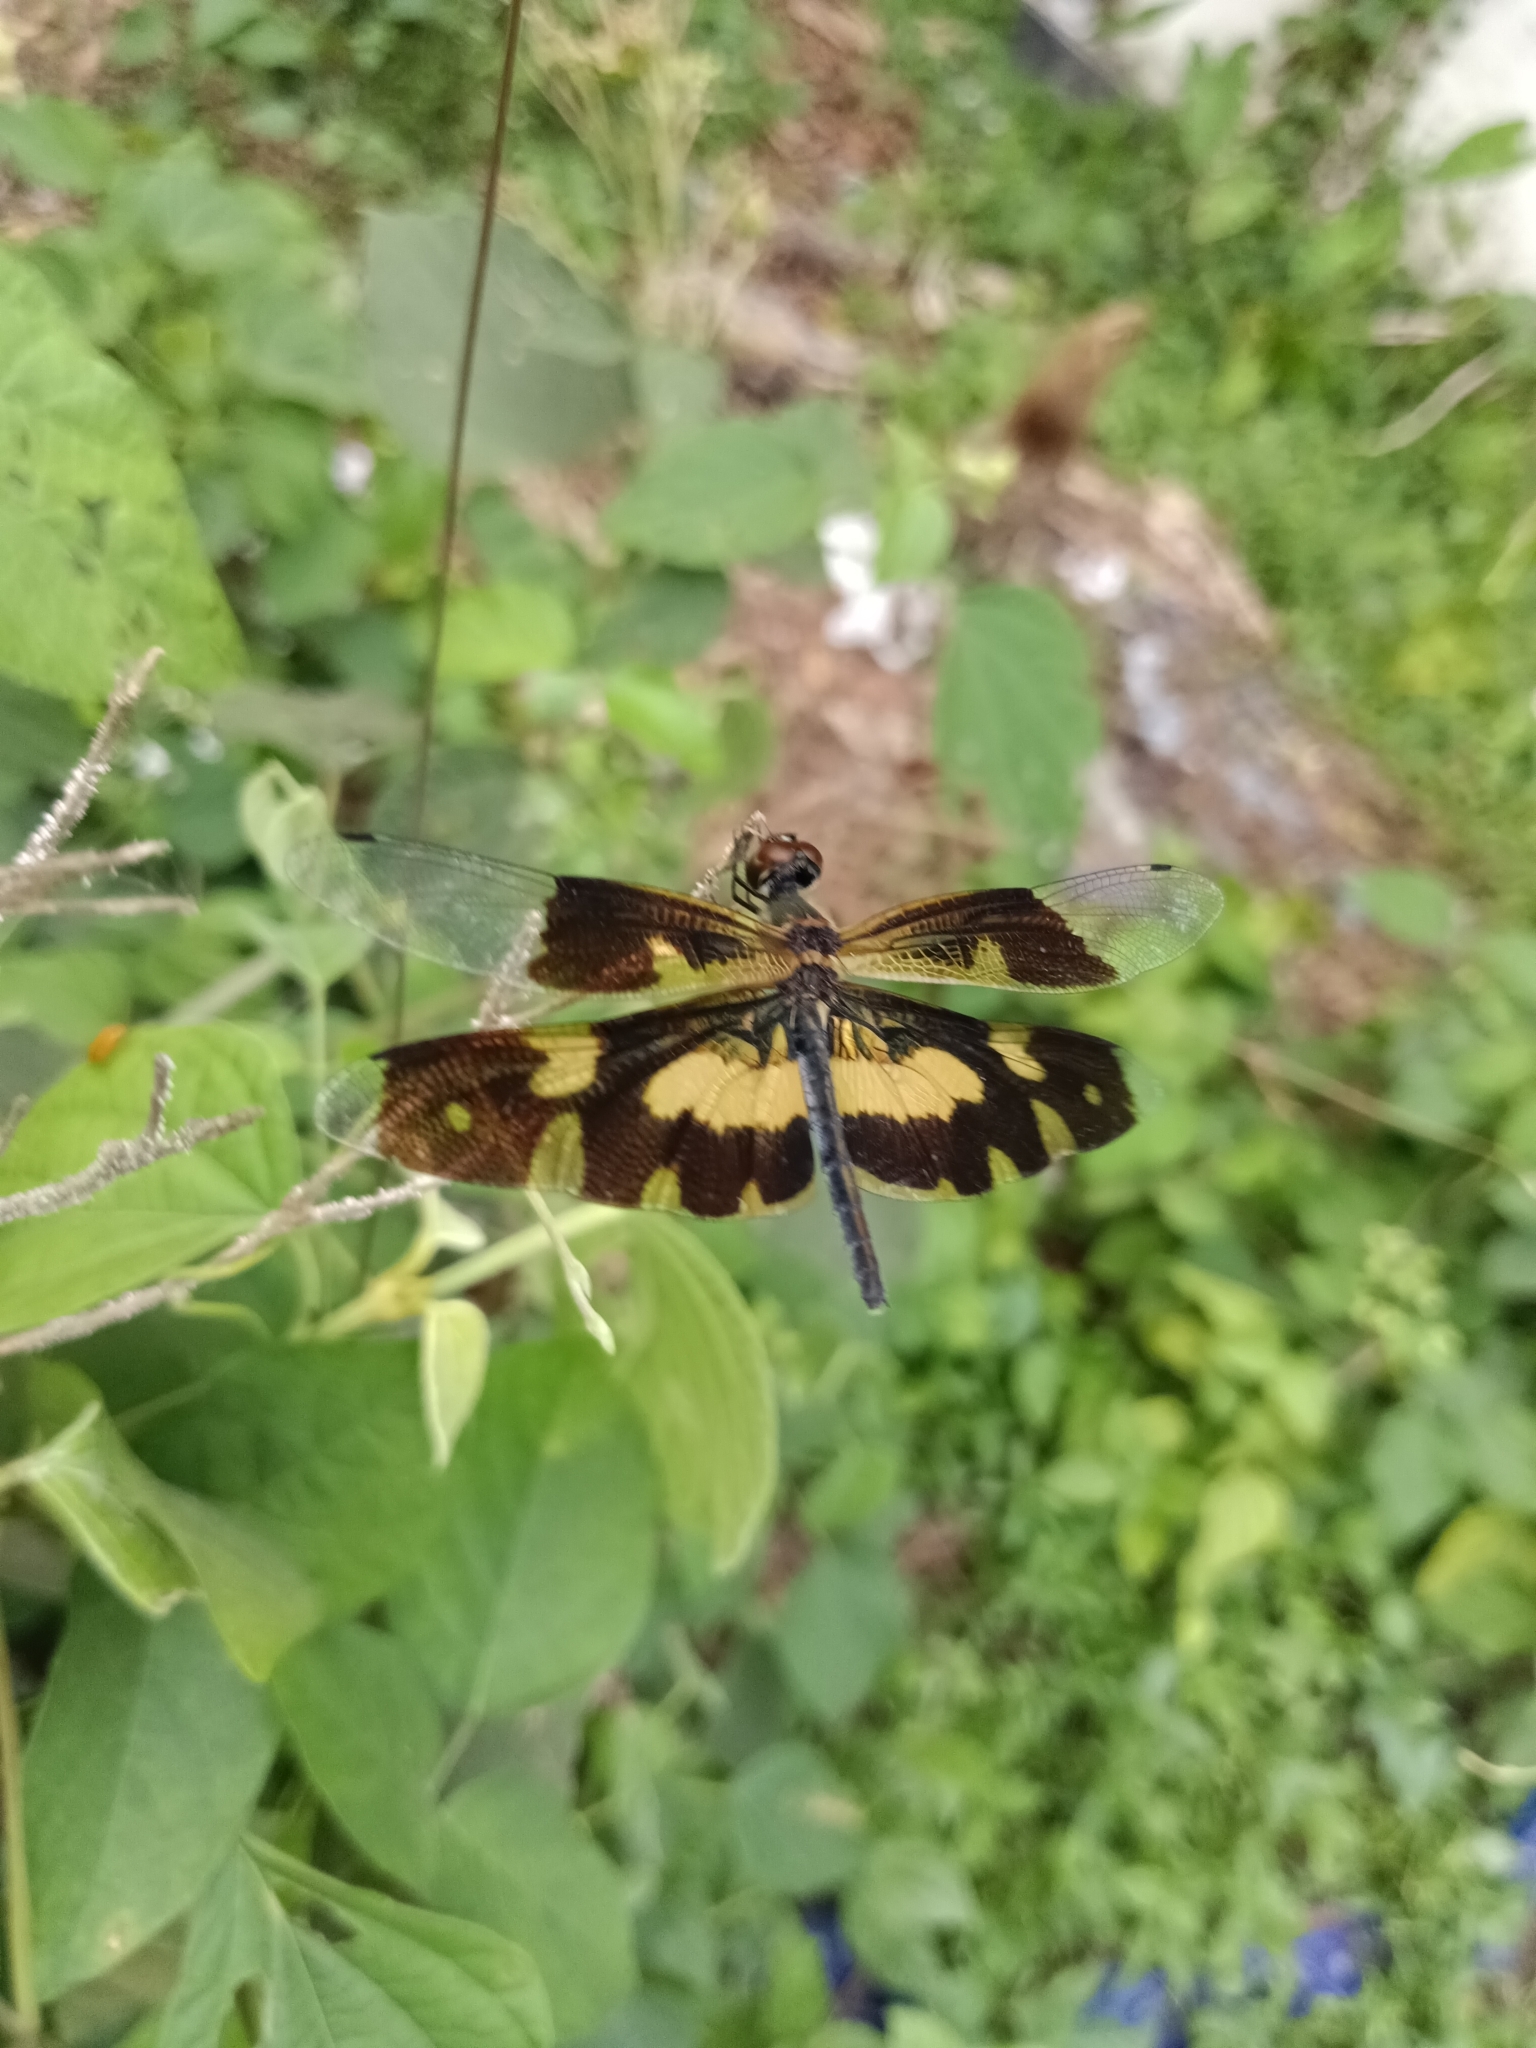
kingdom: Animalia
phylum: Arthropoda
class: Insecta
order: Odonata
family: Libellulidae
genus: Rhyothemis
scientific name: Rhyothemis variegata
